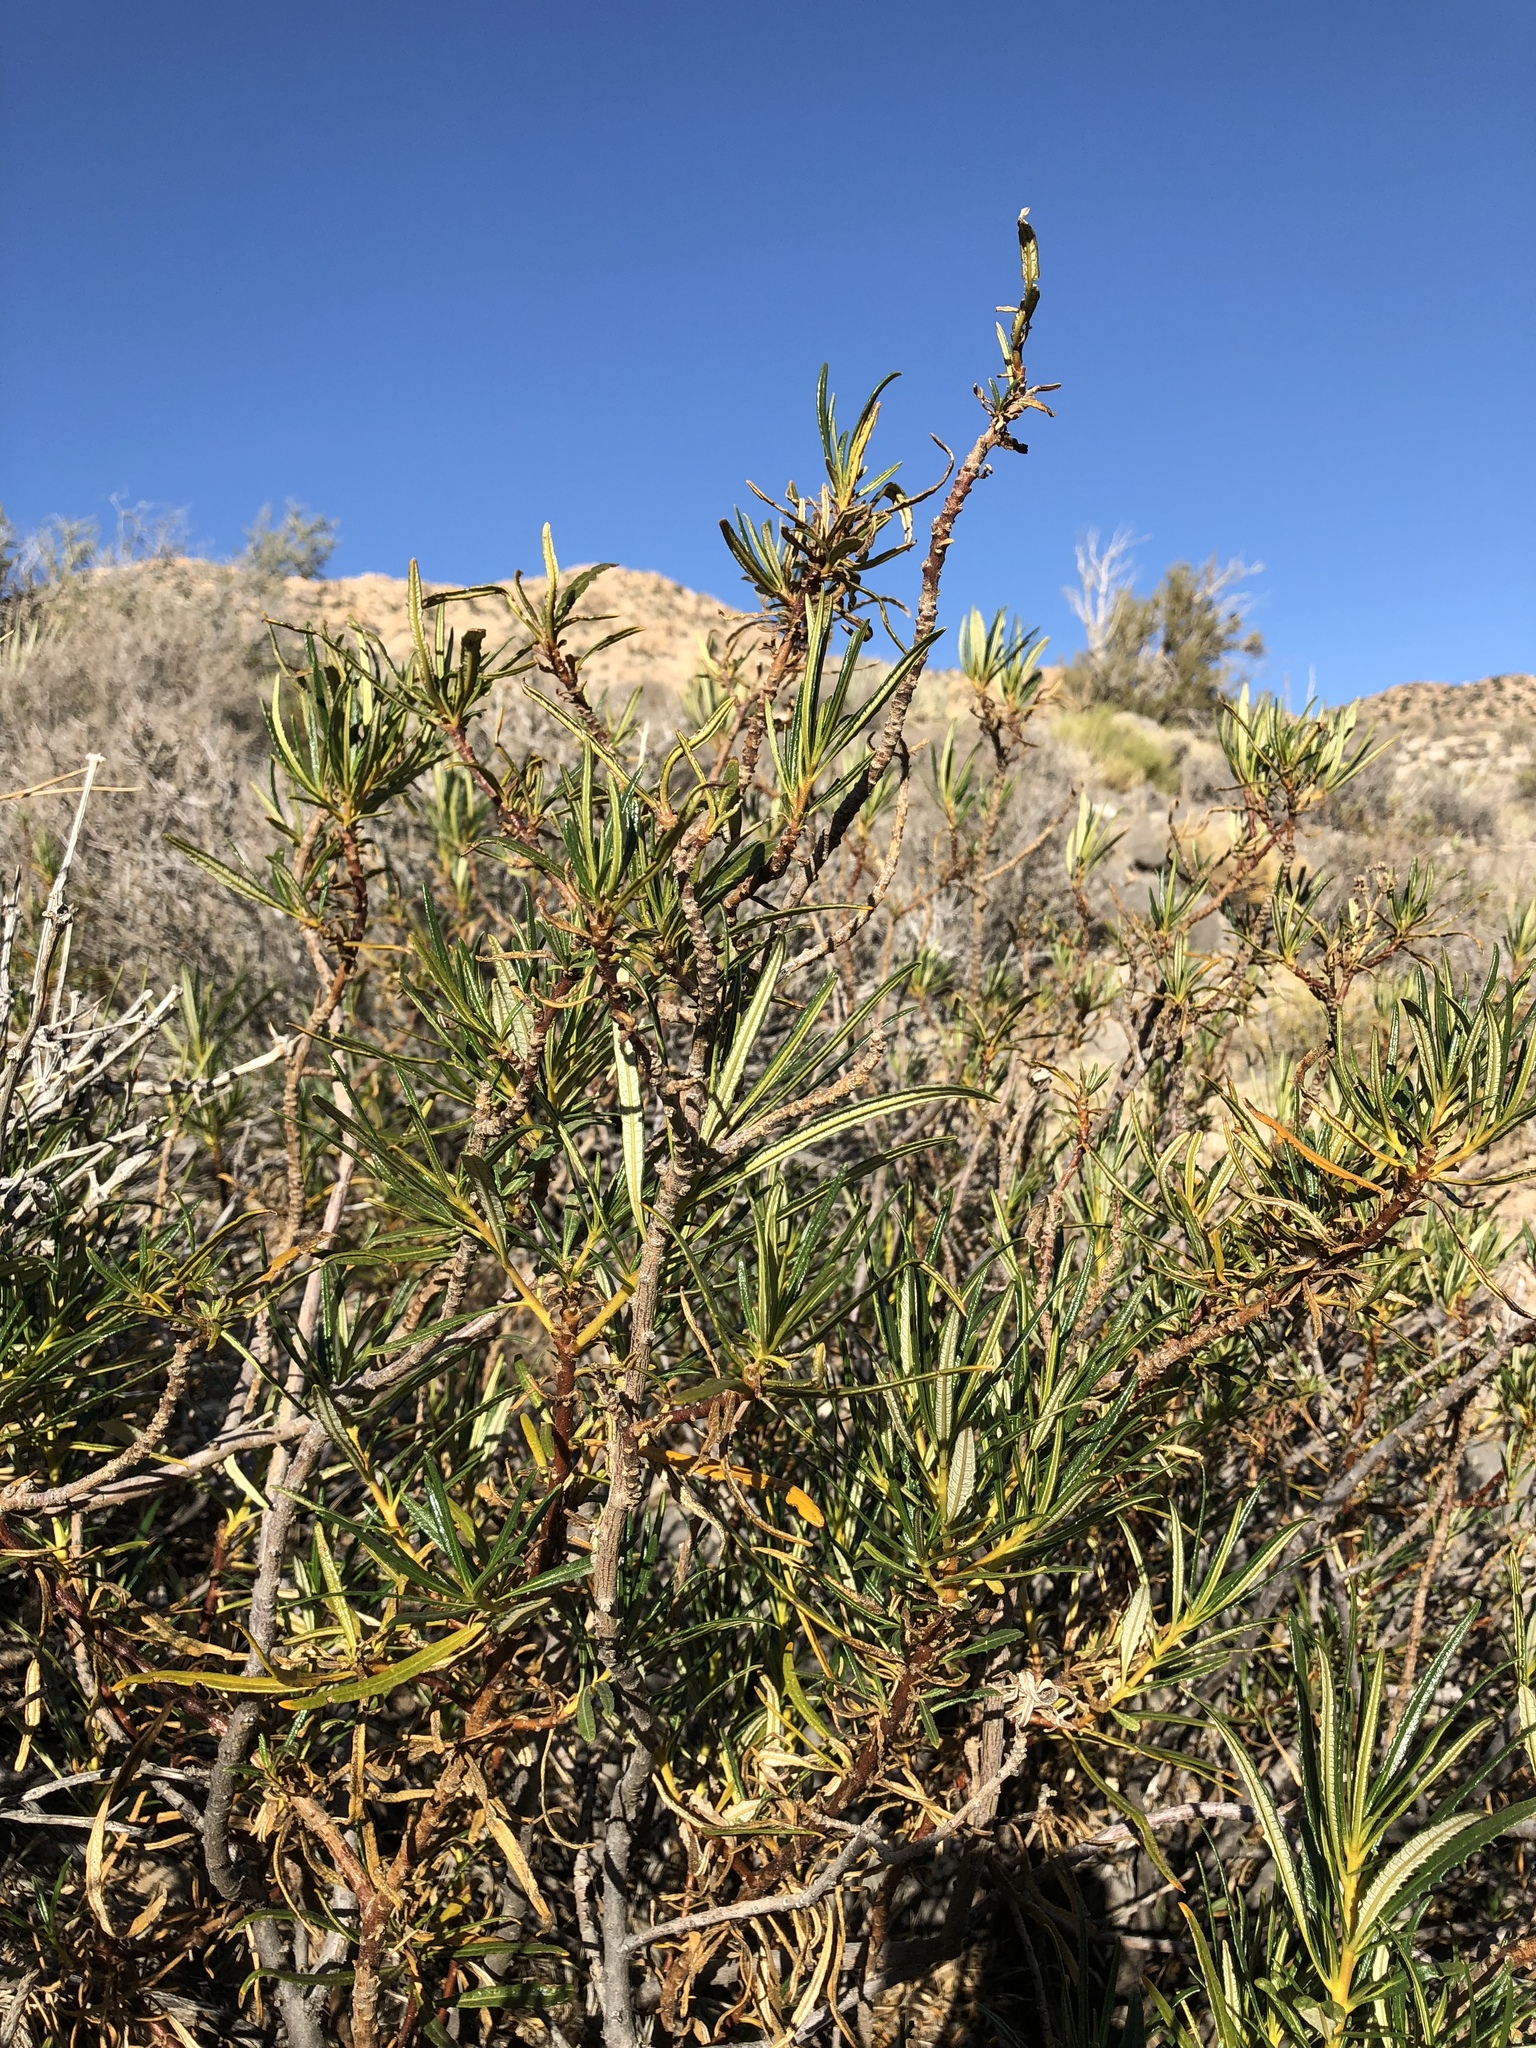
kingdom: Plantae
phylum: Tracheophyta
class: Magnoliopsida
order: Boraginales
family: Namaceae
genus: Eriodictyon
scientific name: Eriodictyon angustifolium
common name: Narrow-leaf yerba santa
